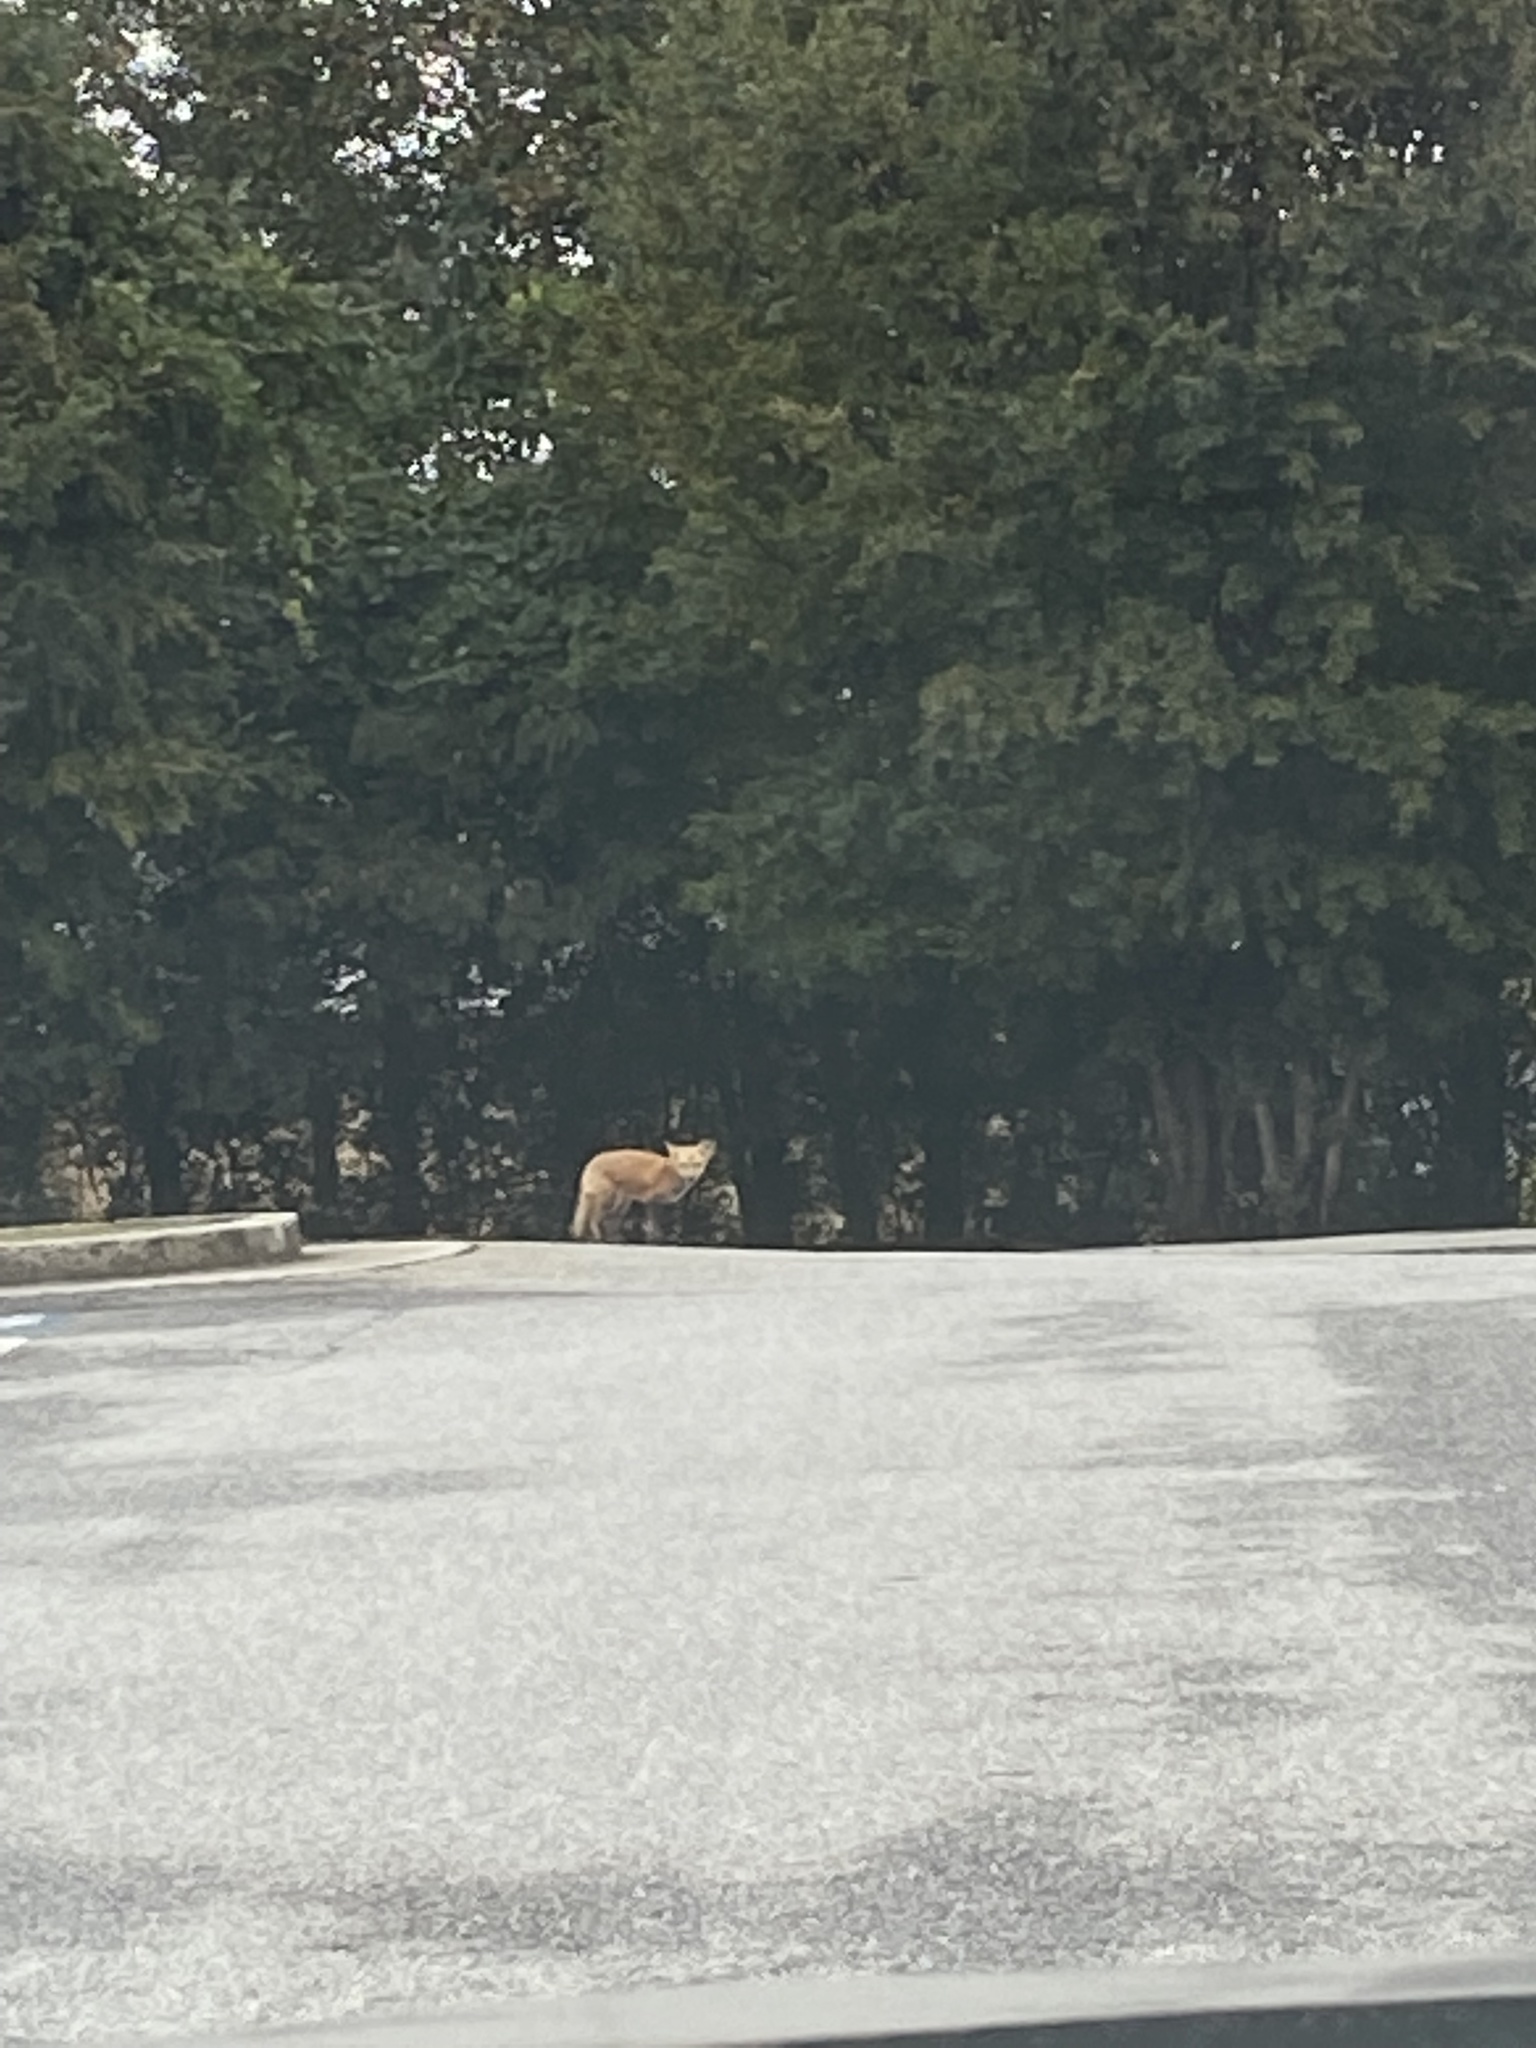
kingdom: Animalia
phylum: Chordata
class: Mammalia
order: Carnivora
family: Canidae
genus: Vulpes
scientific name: Vulpes vulpes
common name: Red fox
